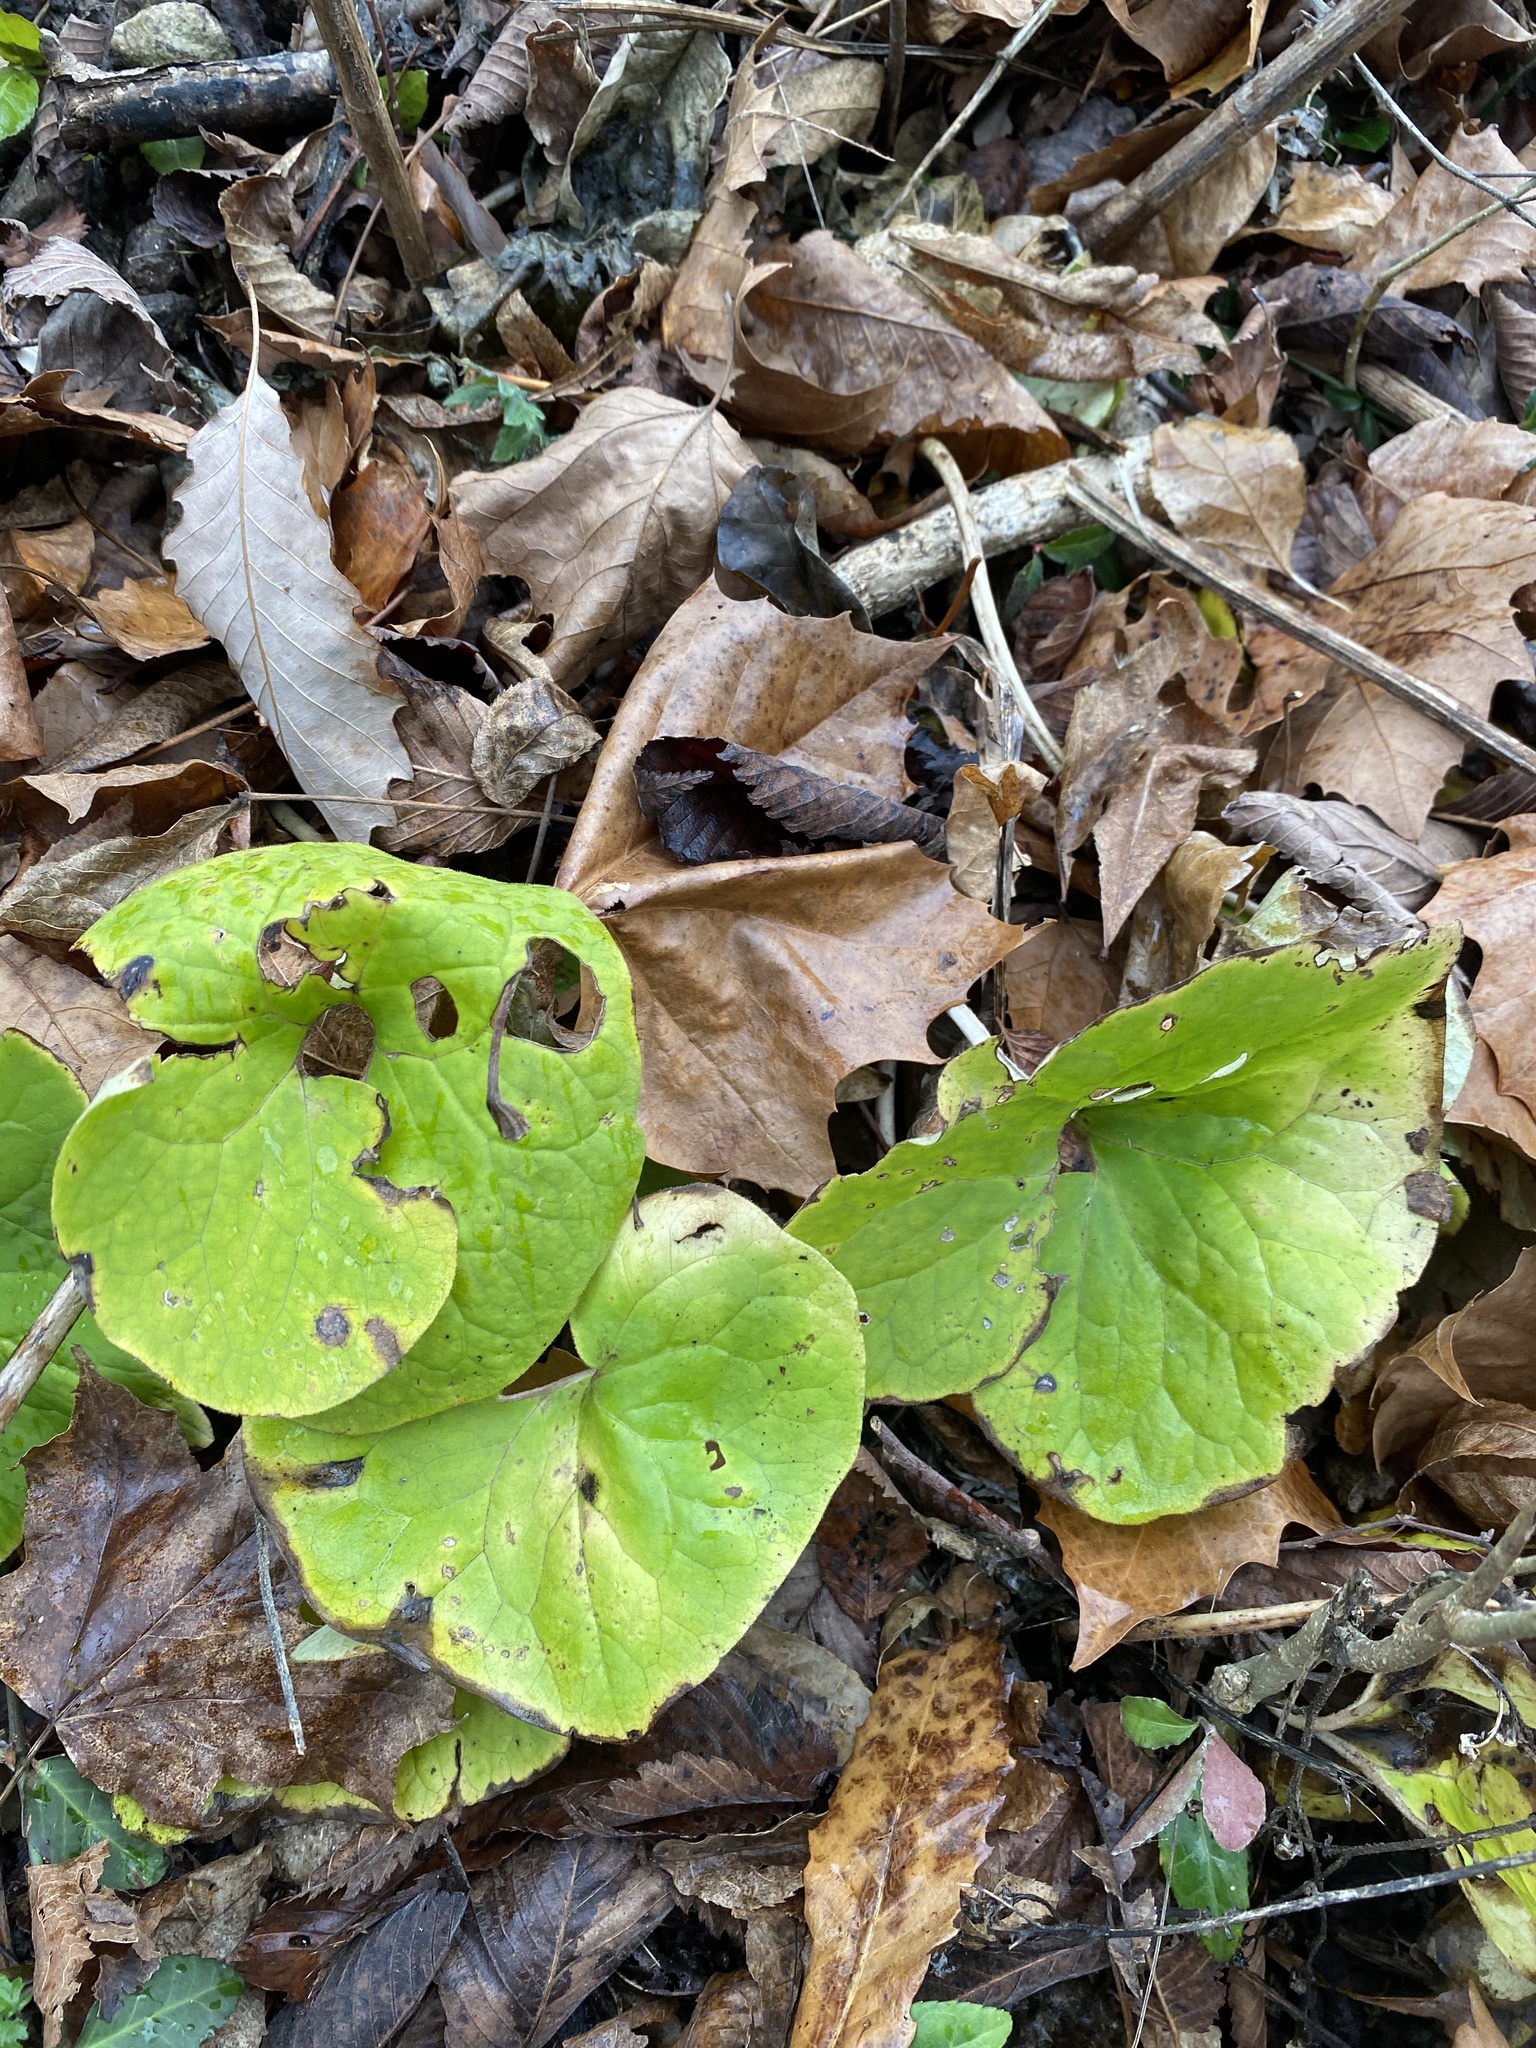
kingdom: Plantae
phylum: Tracheophyta
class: Magnoliopsida
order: Piperales
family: Aristolochiaceae
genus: Asarum
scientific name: Asarum canadense
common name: Wild ginger
